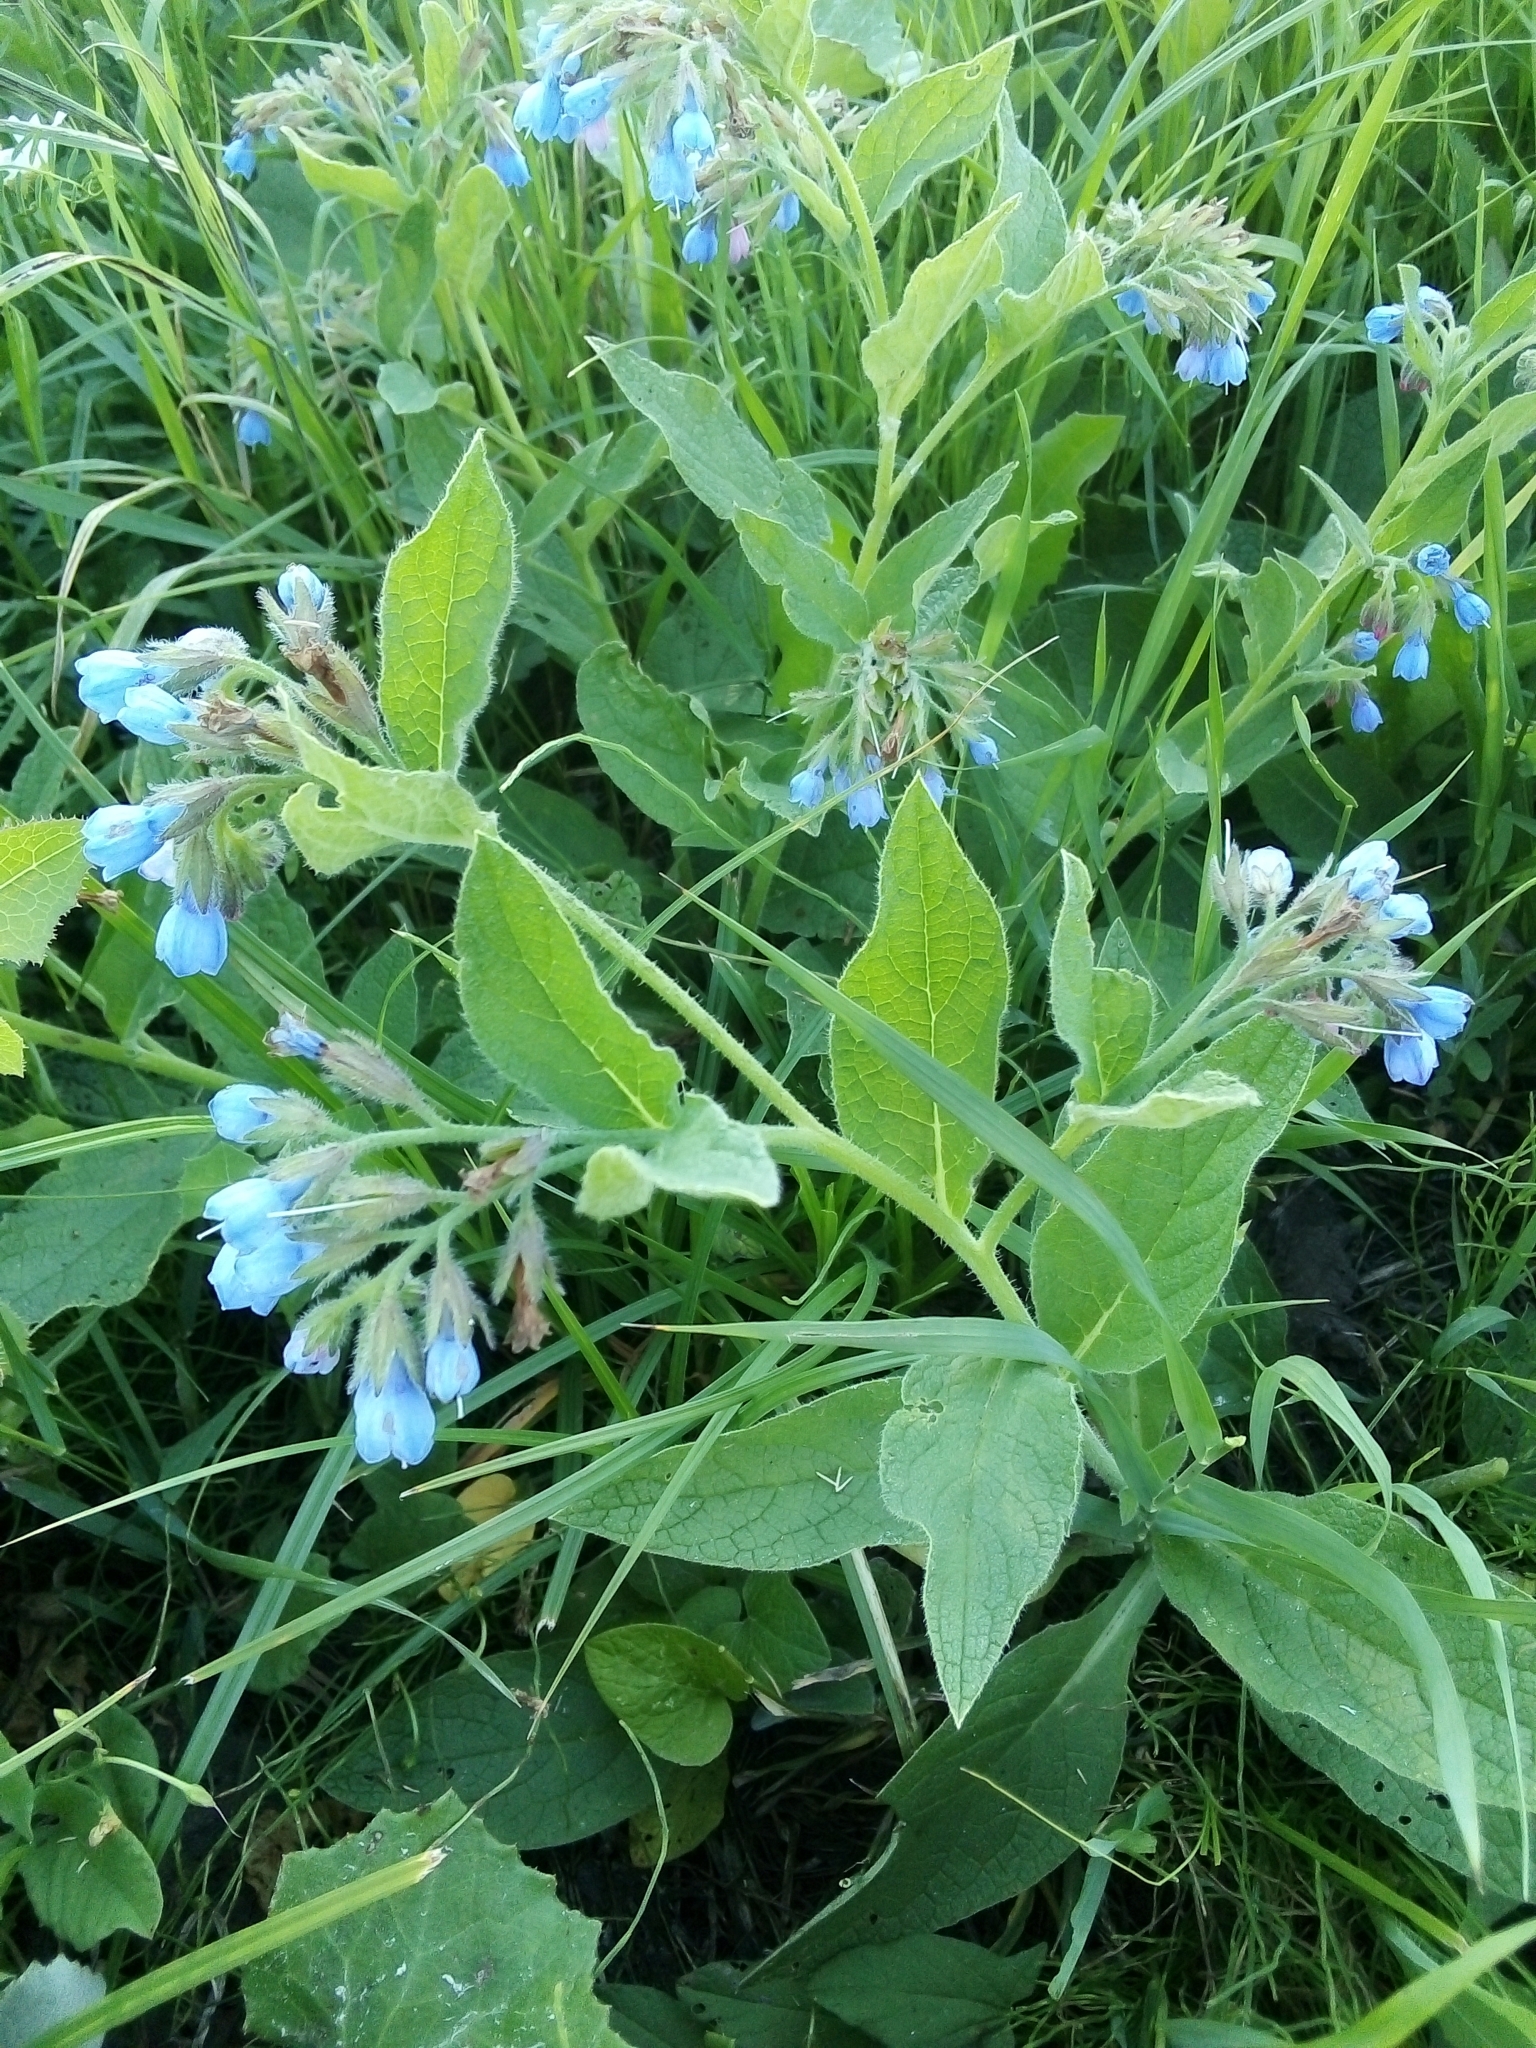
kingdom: Plantae
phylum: Tracheophyta
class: Magnoliopsida
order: Boraginales
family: Boraginaceae
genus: Symphytum
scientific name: Symphytum caucasicum
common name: Caucasian comfrey
